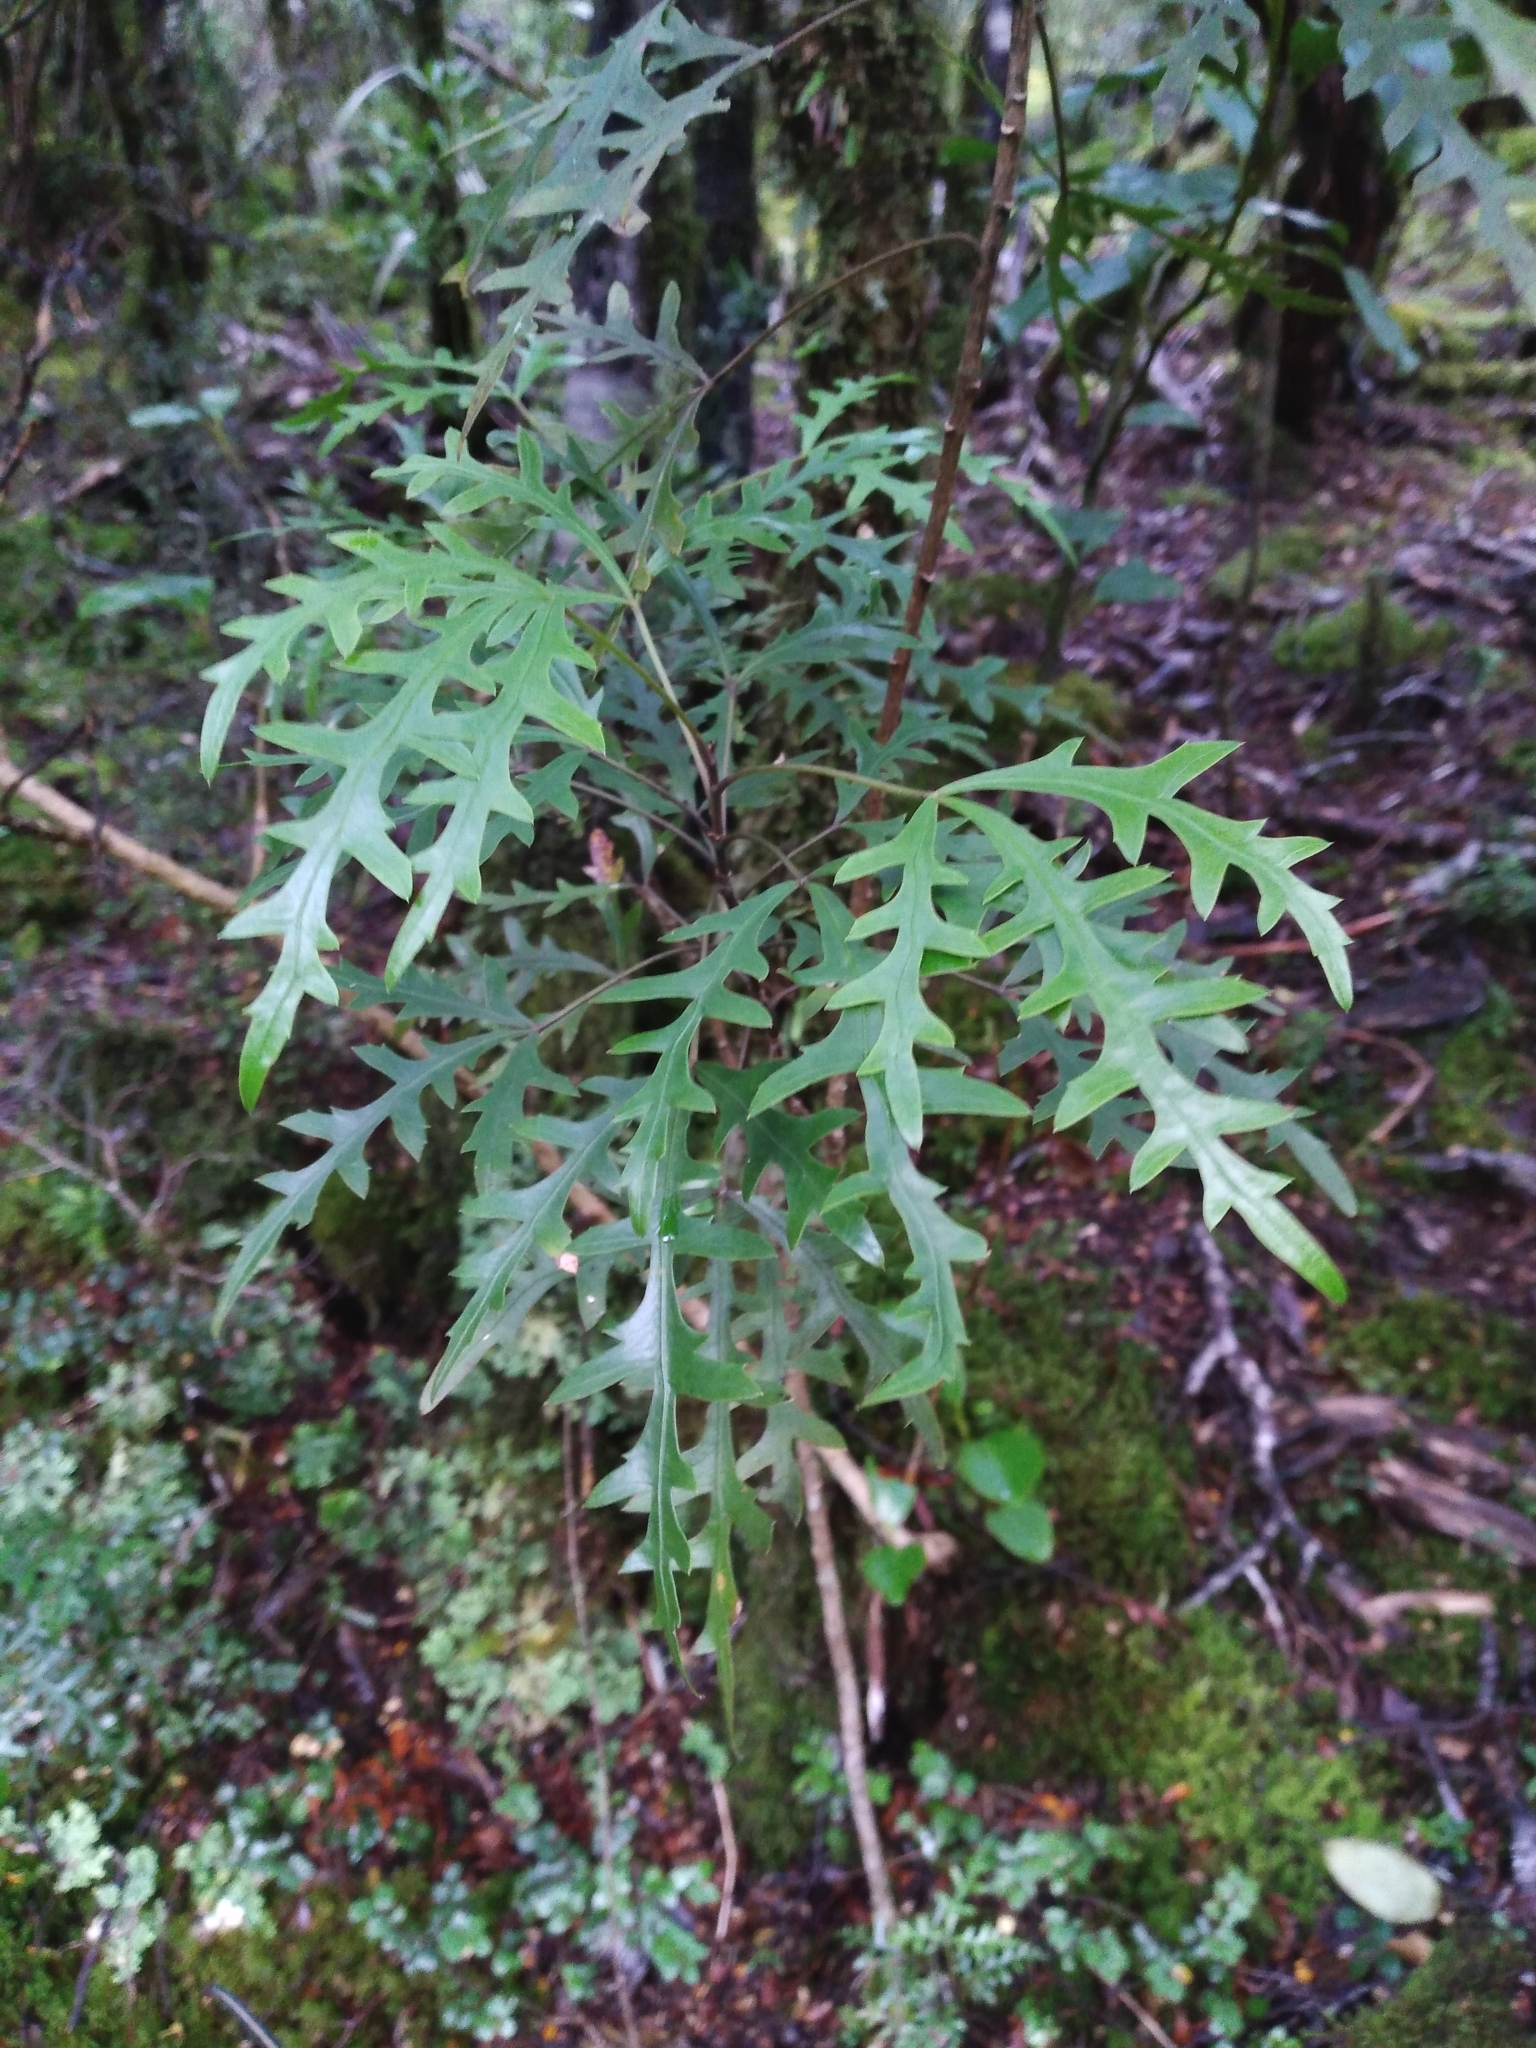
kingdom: Plantae
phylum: Tracheophyta
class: Magnoliopsida
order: Apiales
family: Araliaceae
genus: Raukaua
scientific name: Raukaua simplex
